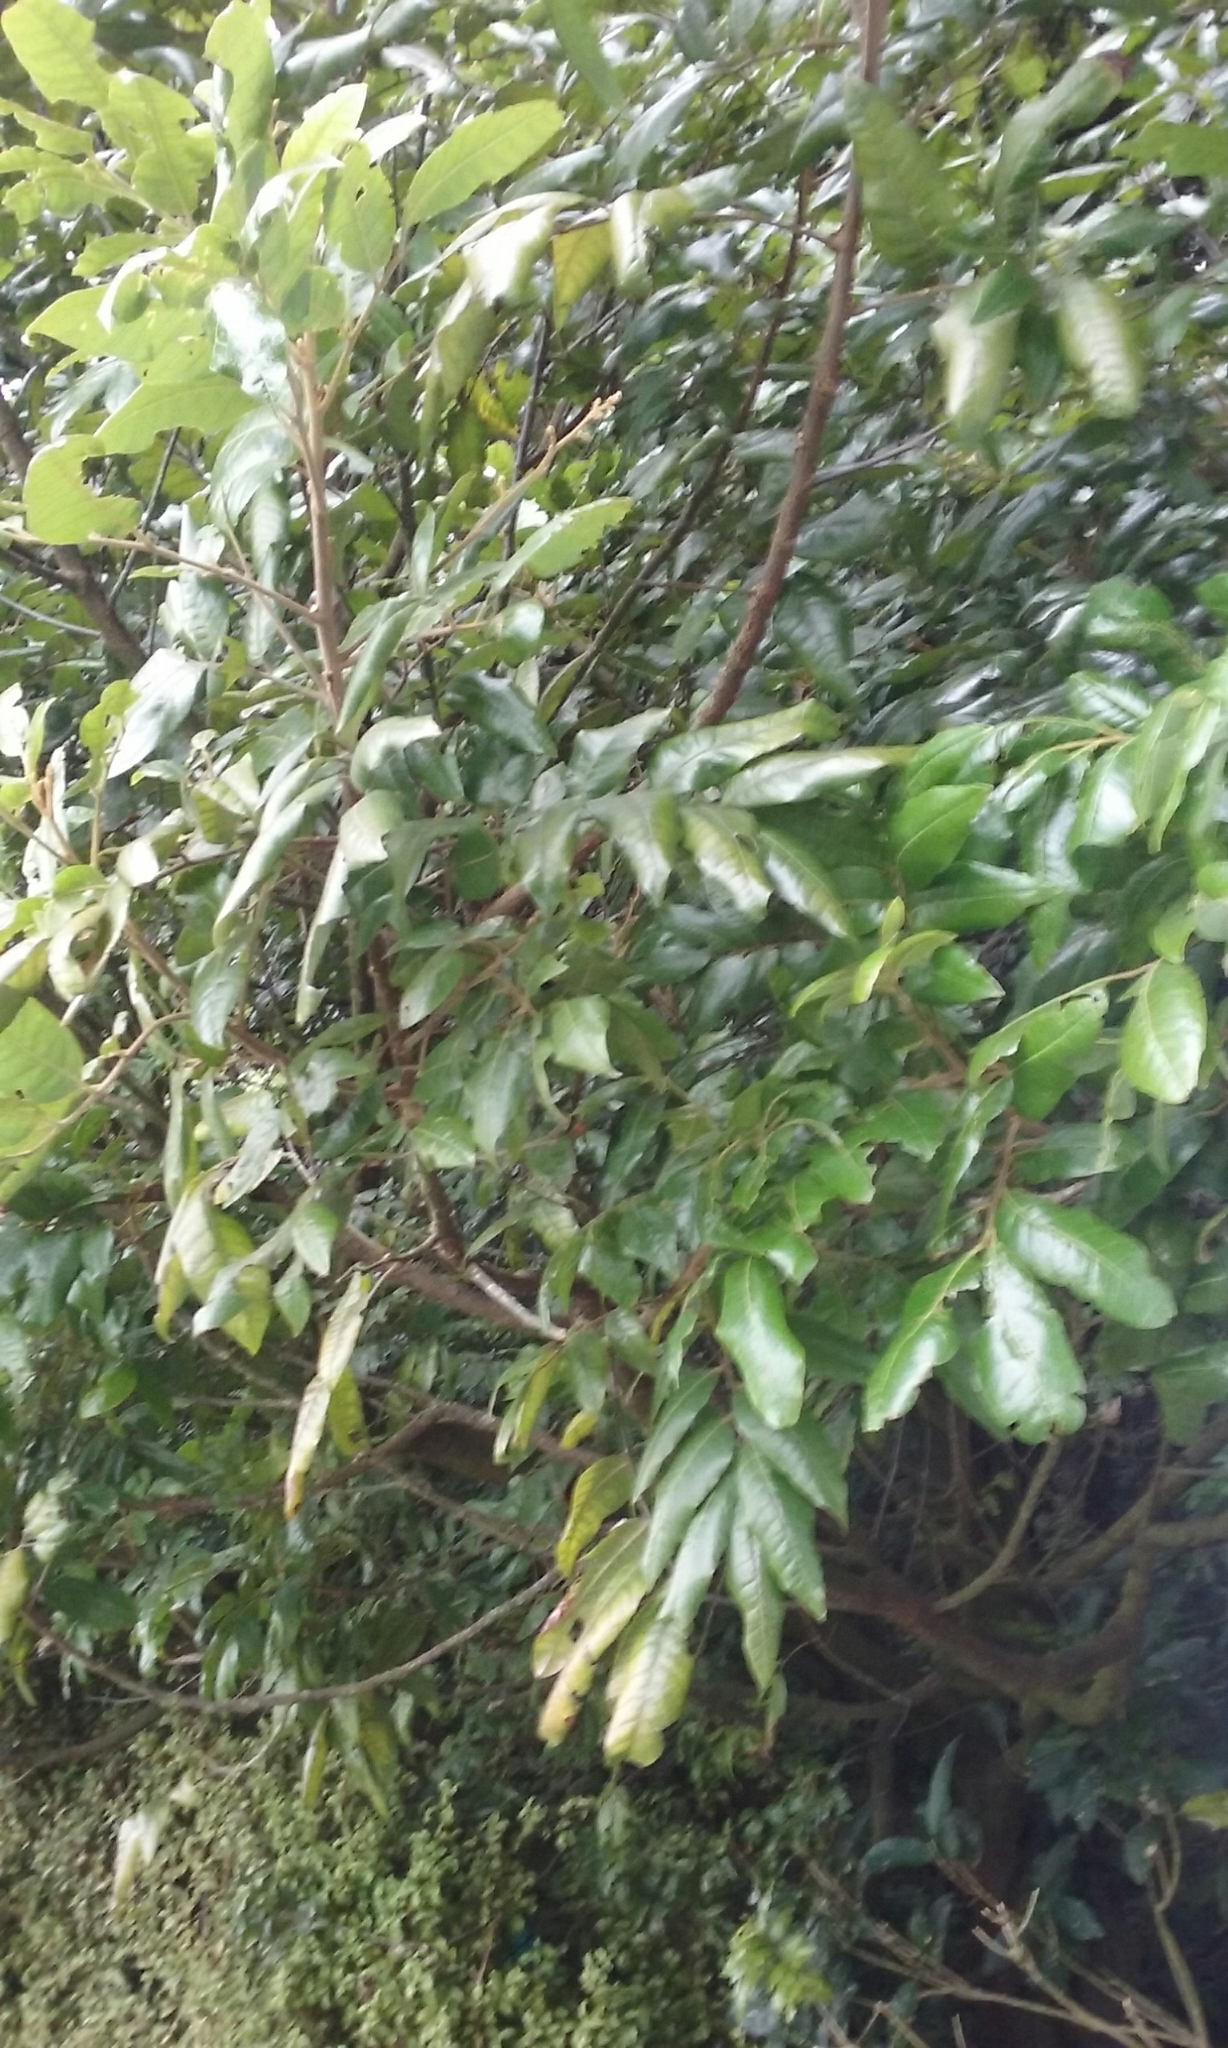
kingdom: Plantae
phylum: Tracheophyta
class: Magnoliopsida
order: Sapindales
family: Sapindaceae
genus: Alectryon
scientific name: Alectryon excelsus
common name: Three kings titoki
